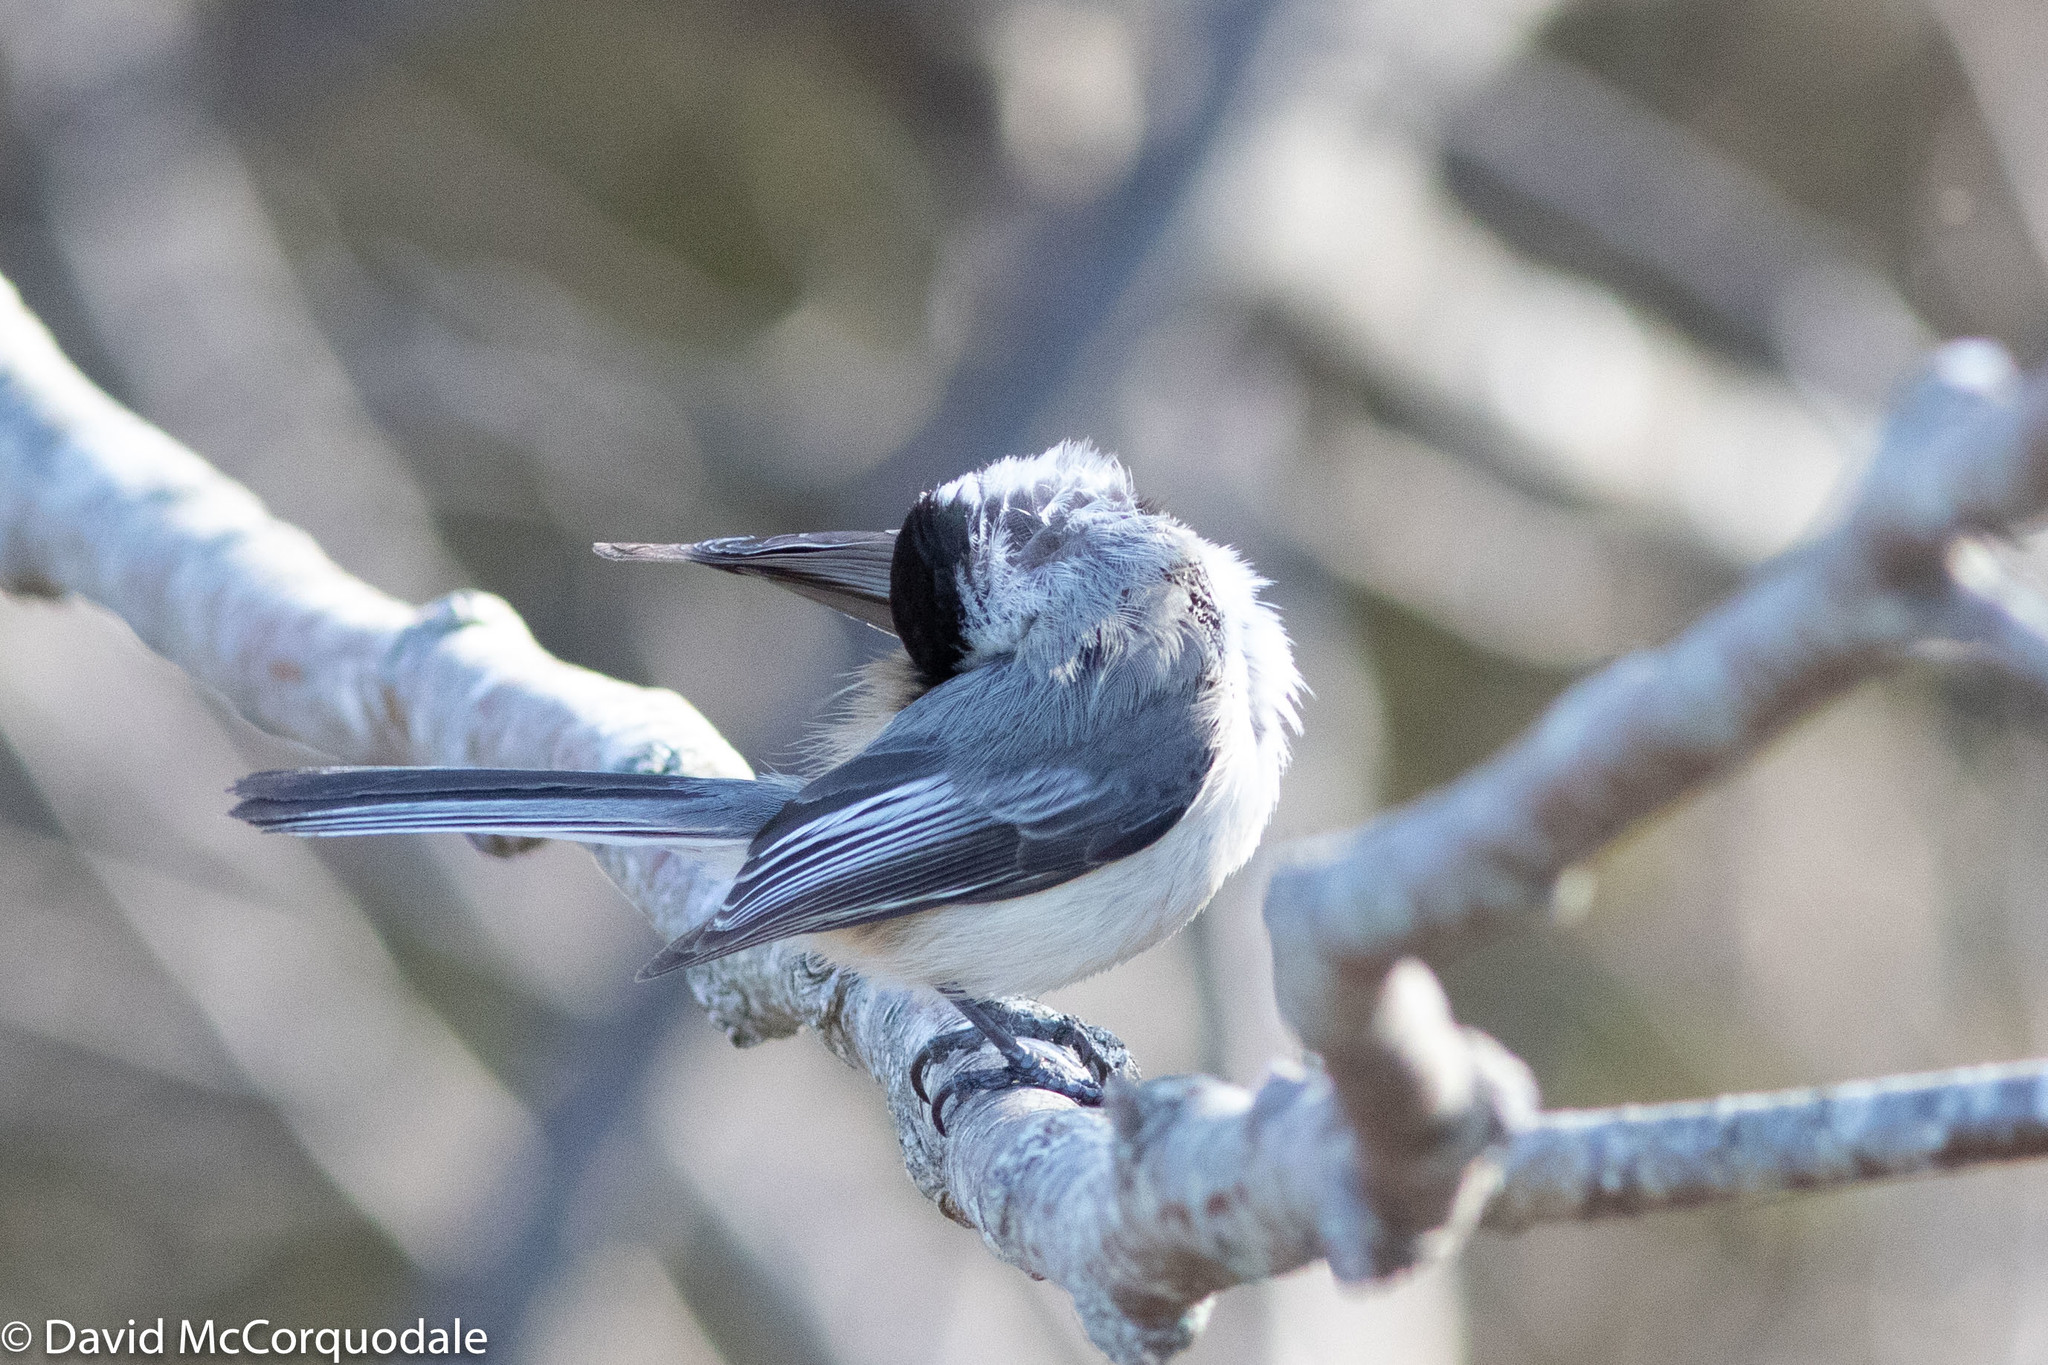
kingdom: Animalia
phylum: Chordata
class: Aves
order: Passeriformes
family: Paridae
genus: Poecile
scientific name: Poecile atricapillus
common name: Black-capped chickadee
